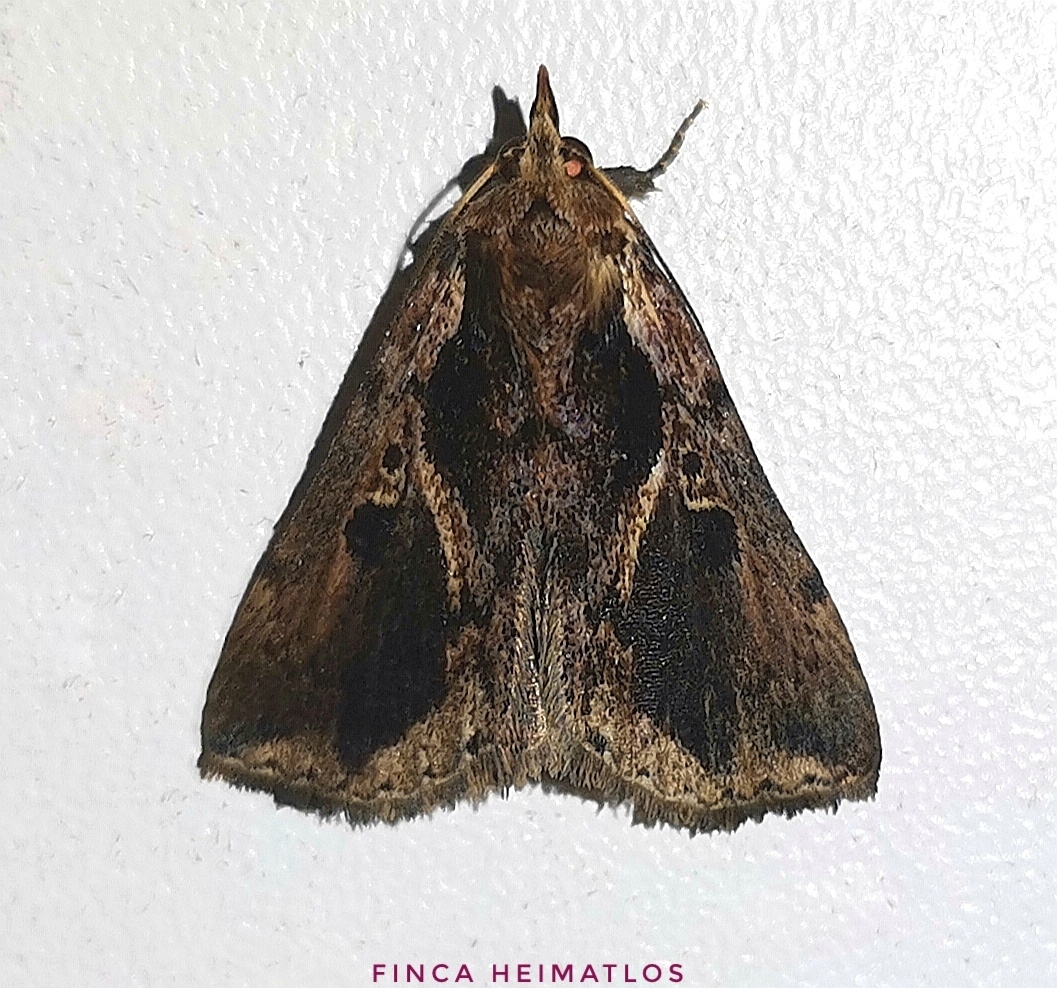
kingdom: Animalia
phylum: Arthropoda
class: Insecta
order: Lepidoptera
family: Erebidae
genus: Coeriana
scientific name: Coeriana pretiosa
